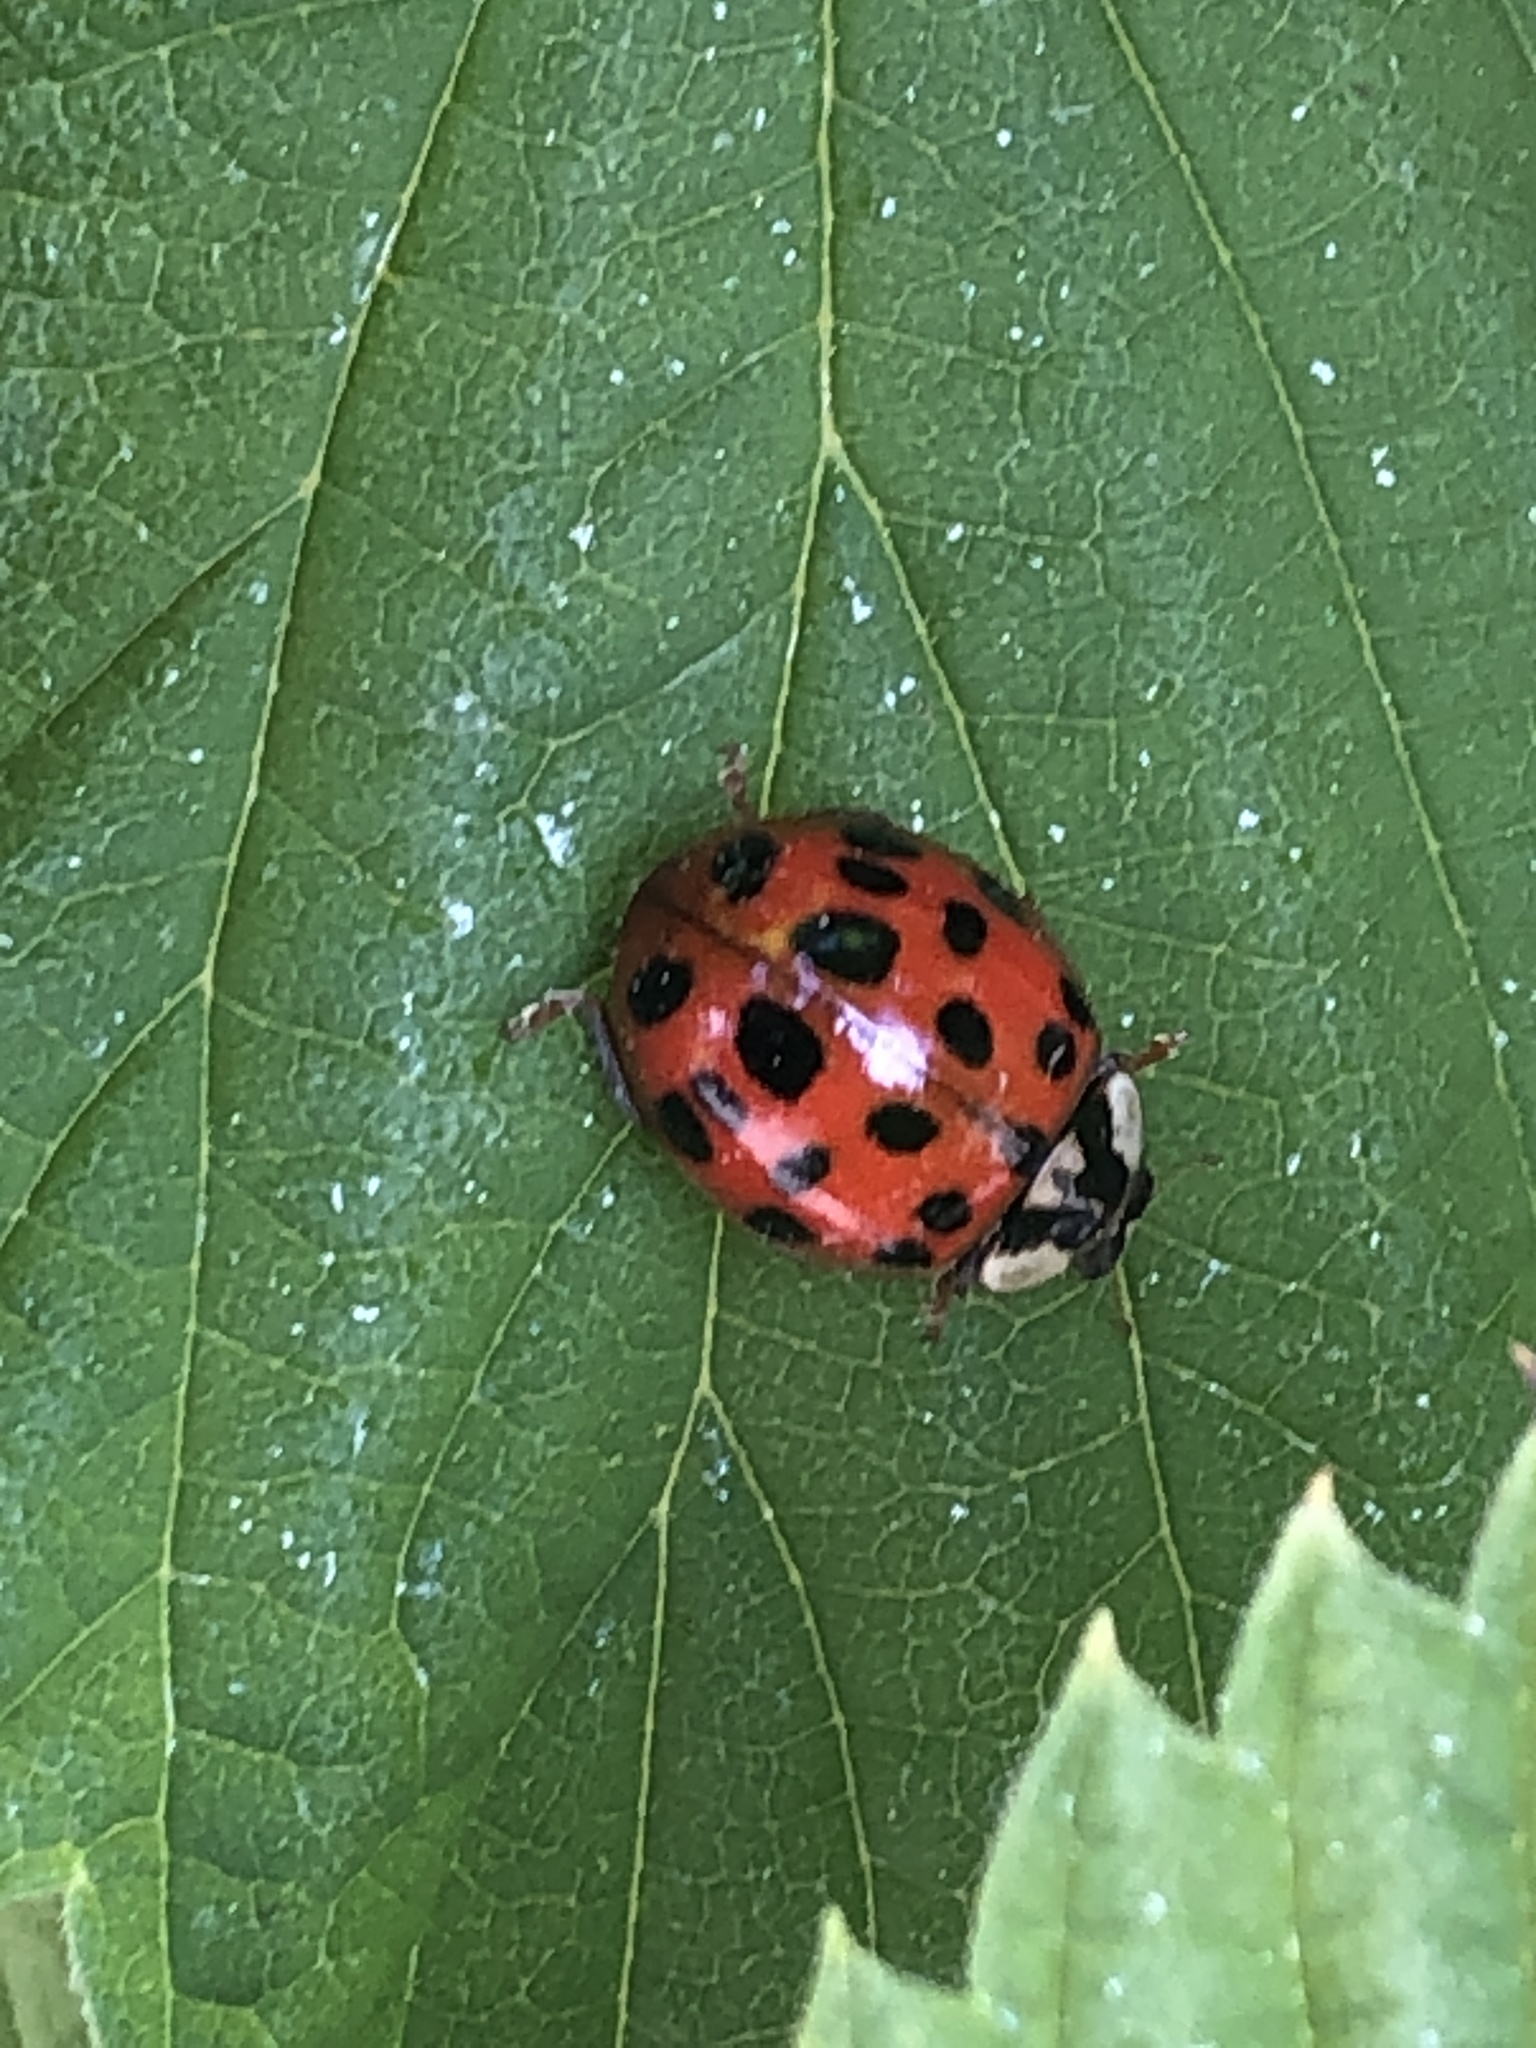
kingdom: Animalia
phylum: Arthropoda
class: Insecta
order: Coleoptera
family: Coccinellidae
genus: Harmonia
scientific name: Harmonia axyridis
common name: Harlequin ladybird
